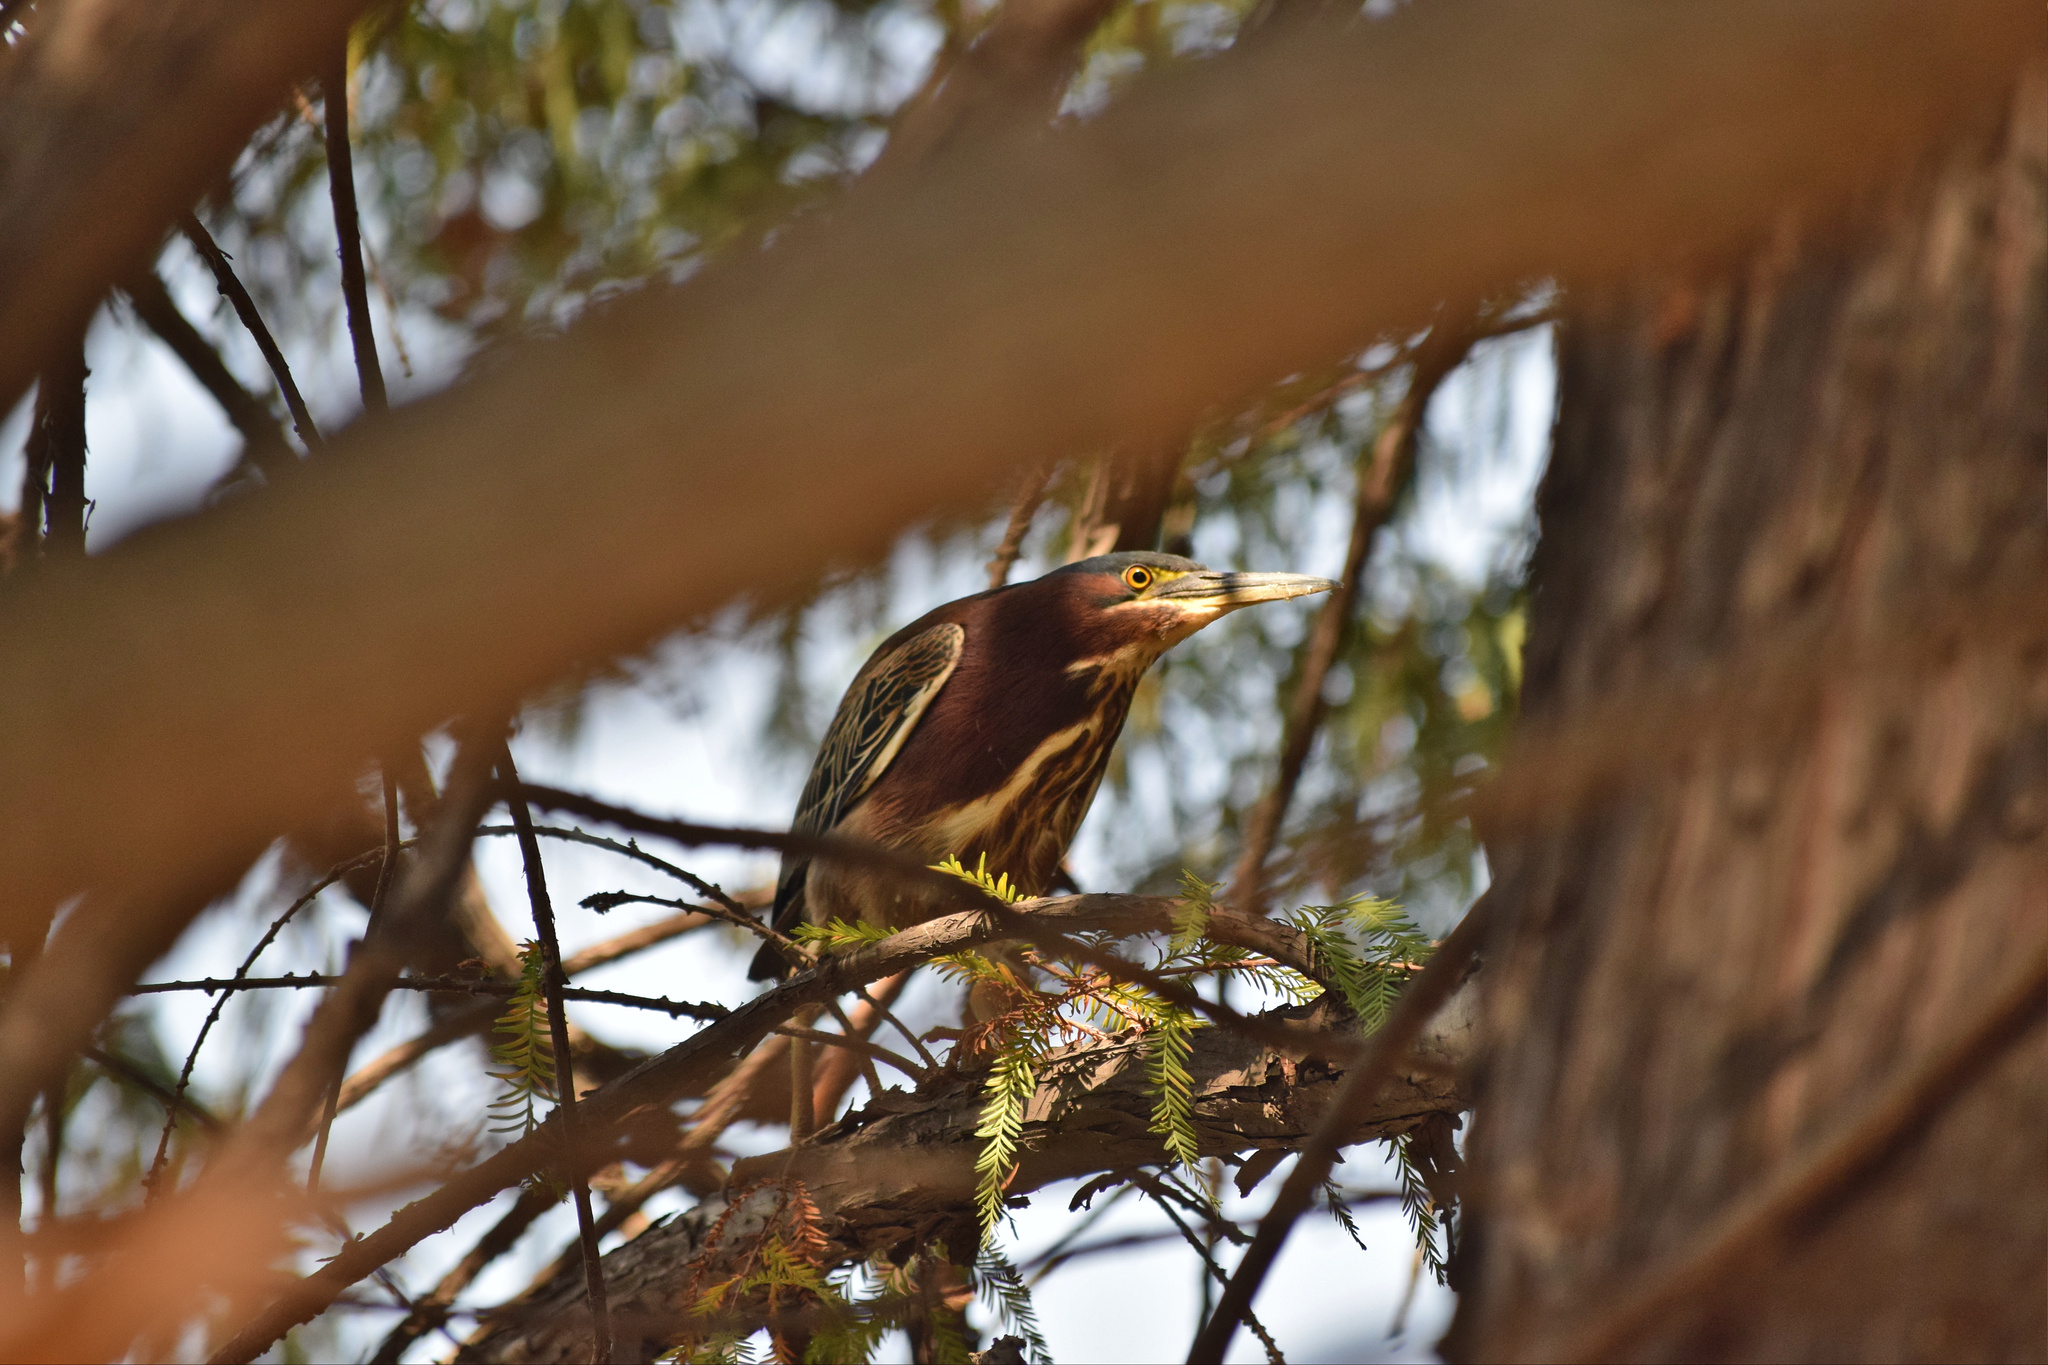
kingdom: Animalia
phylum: Chordata
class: Aves
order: Pelecaniformes
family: Ardeidae
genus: Butorides
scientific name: Butorides virescens
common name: Green heron
